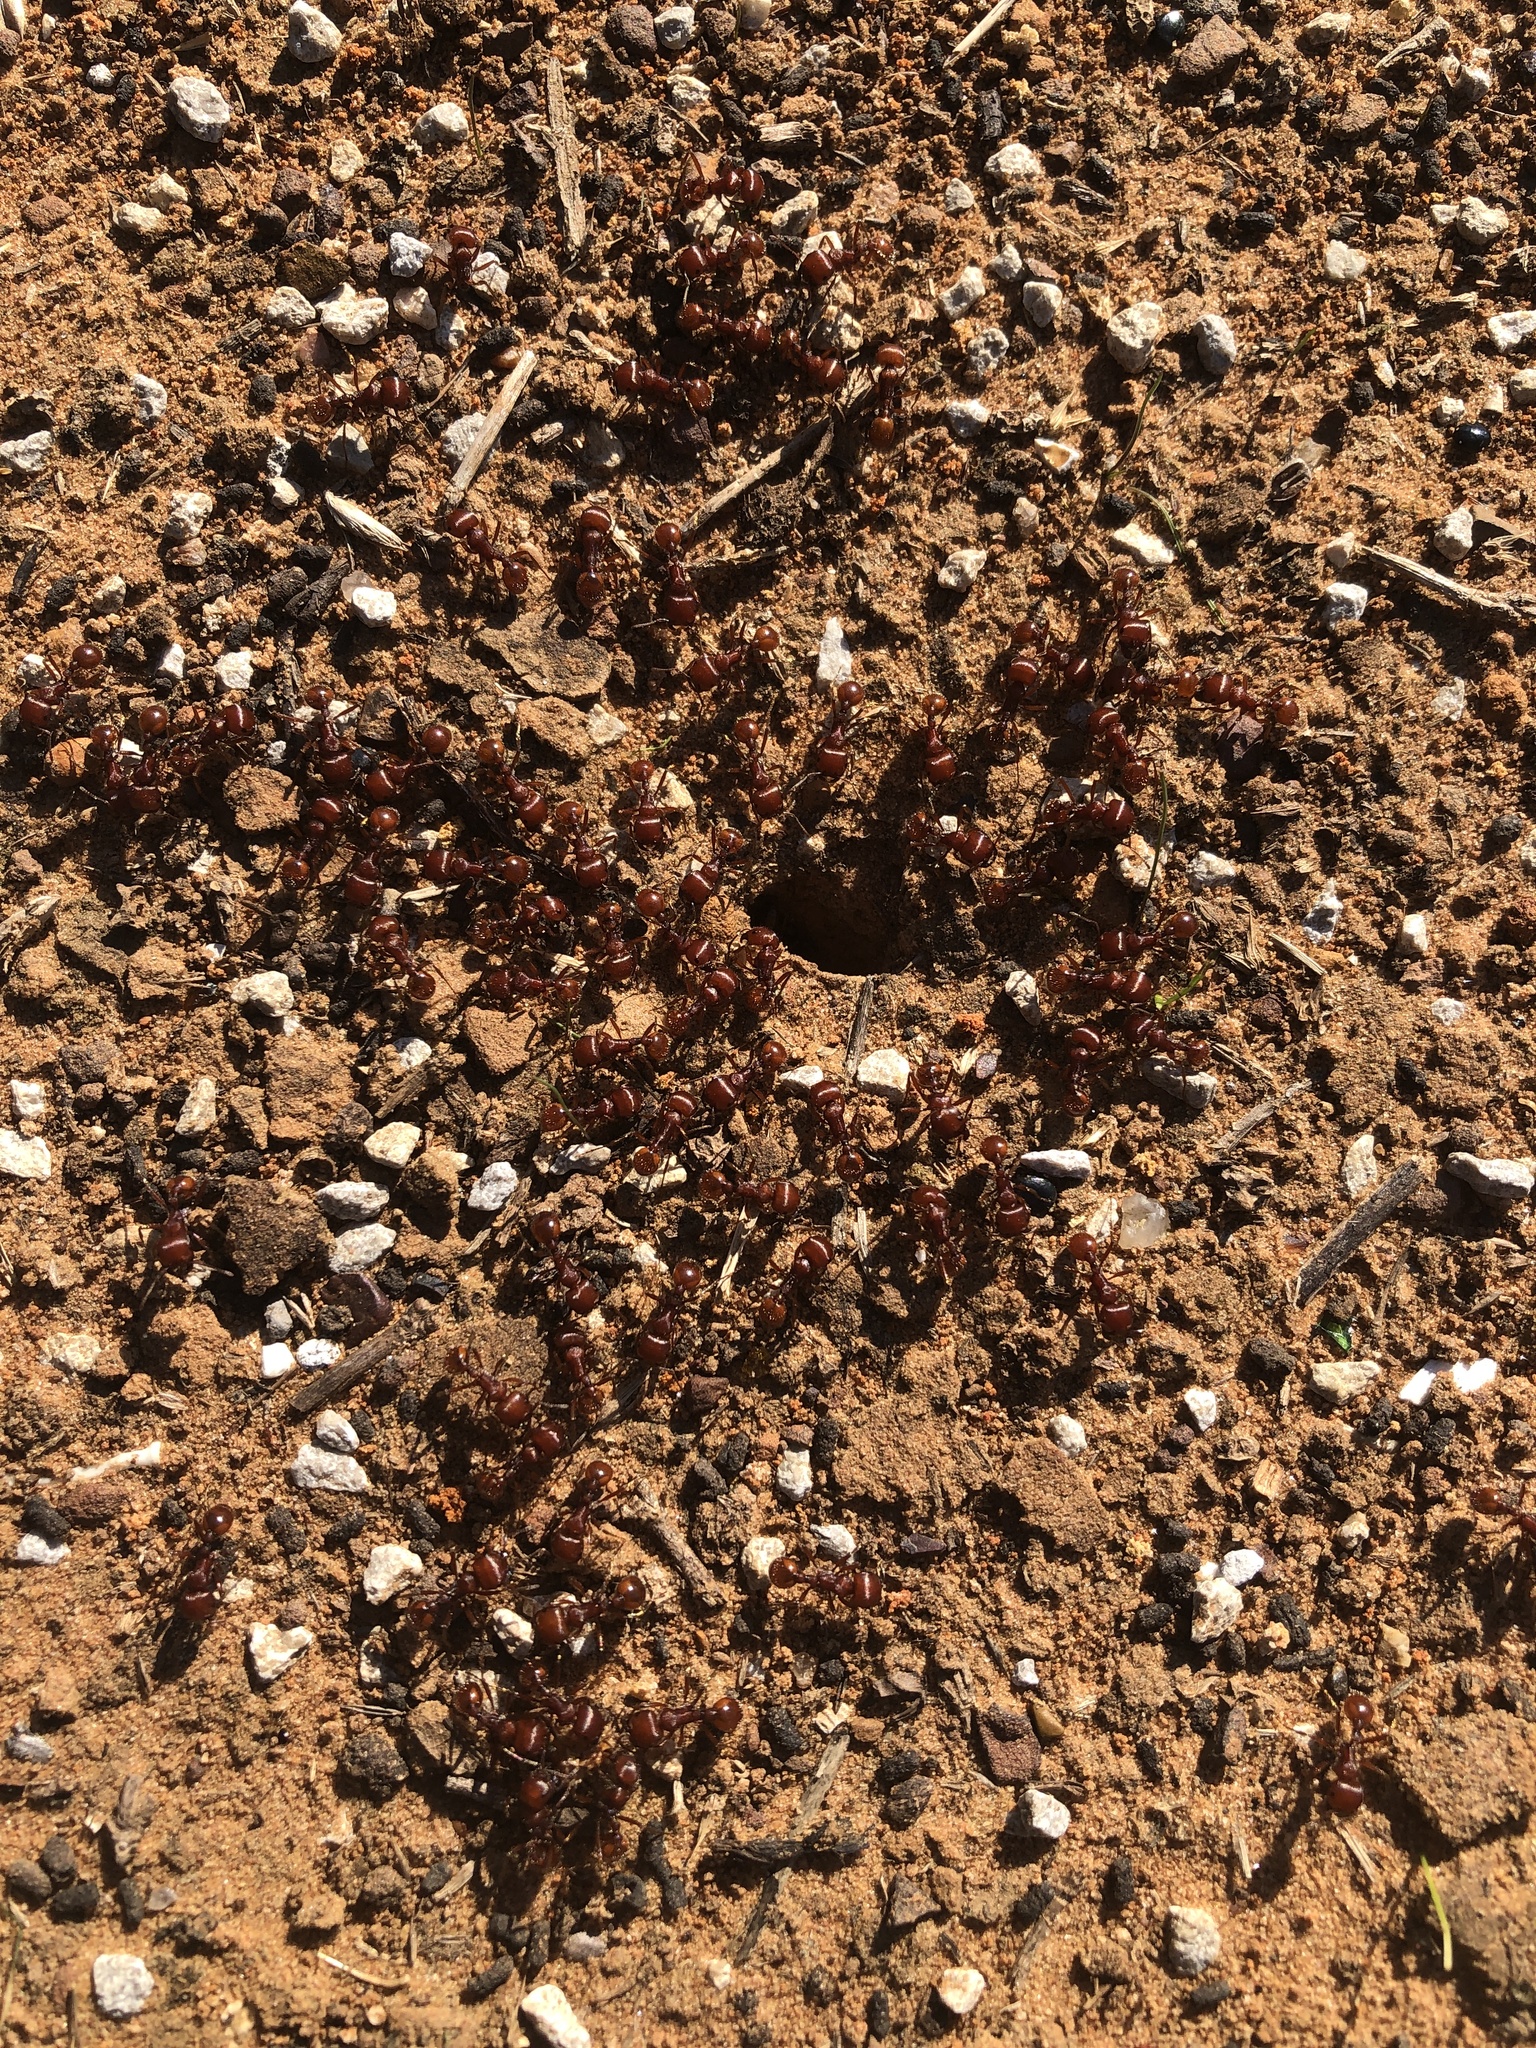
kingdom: Animalia
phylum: Arthropoda
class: Insecta
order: Hymenoptera
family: Formicidae
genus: Pogonomyrmex
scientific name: Pogonomyrmex barbatus
